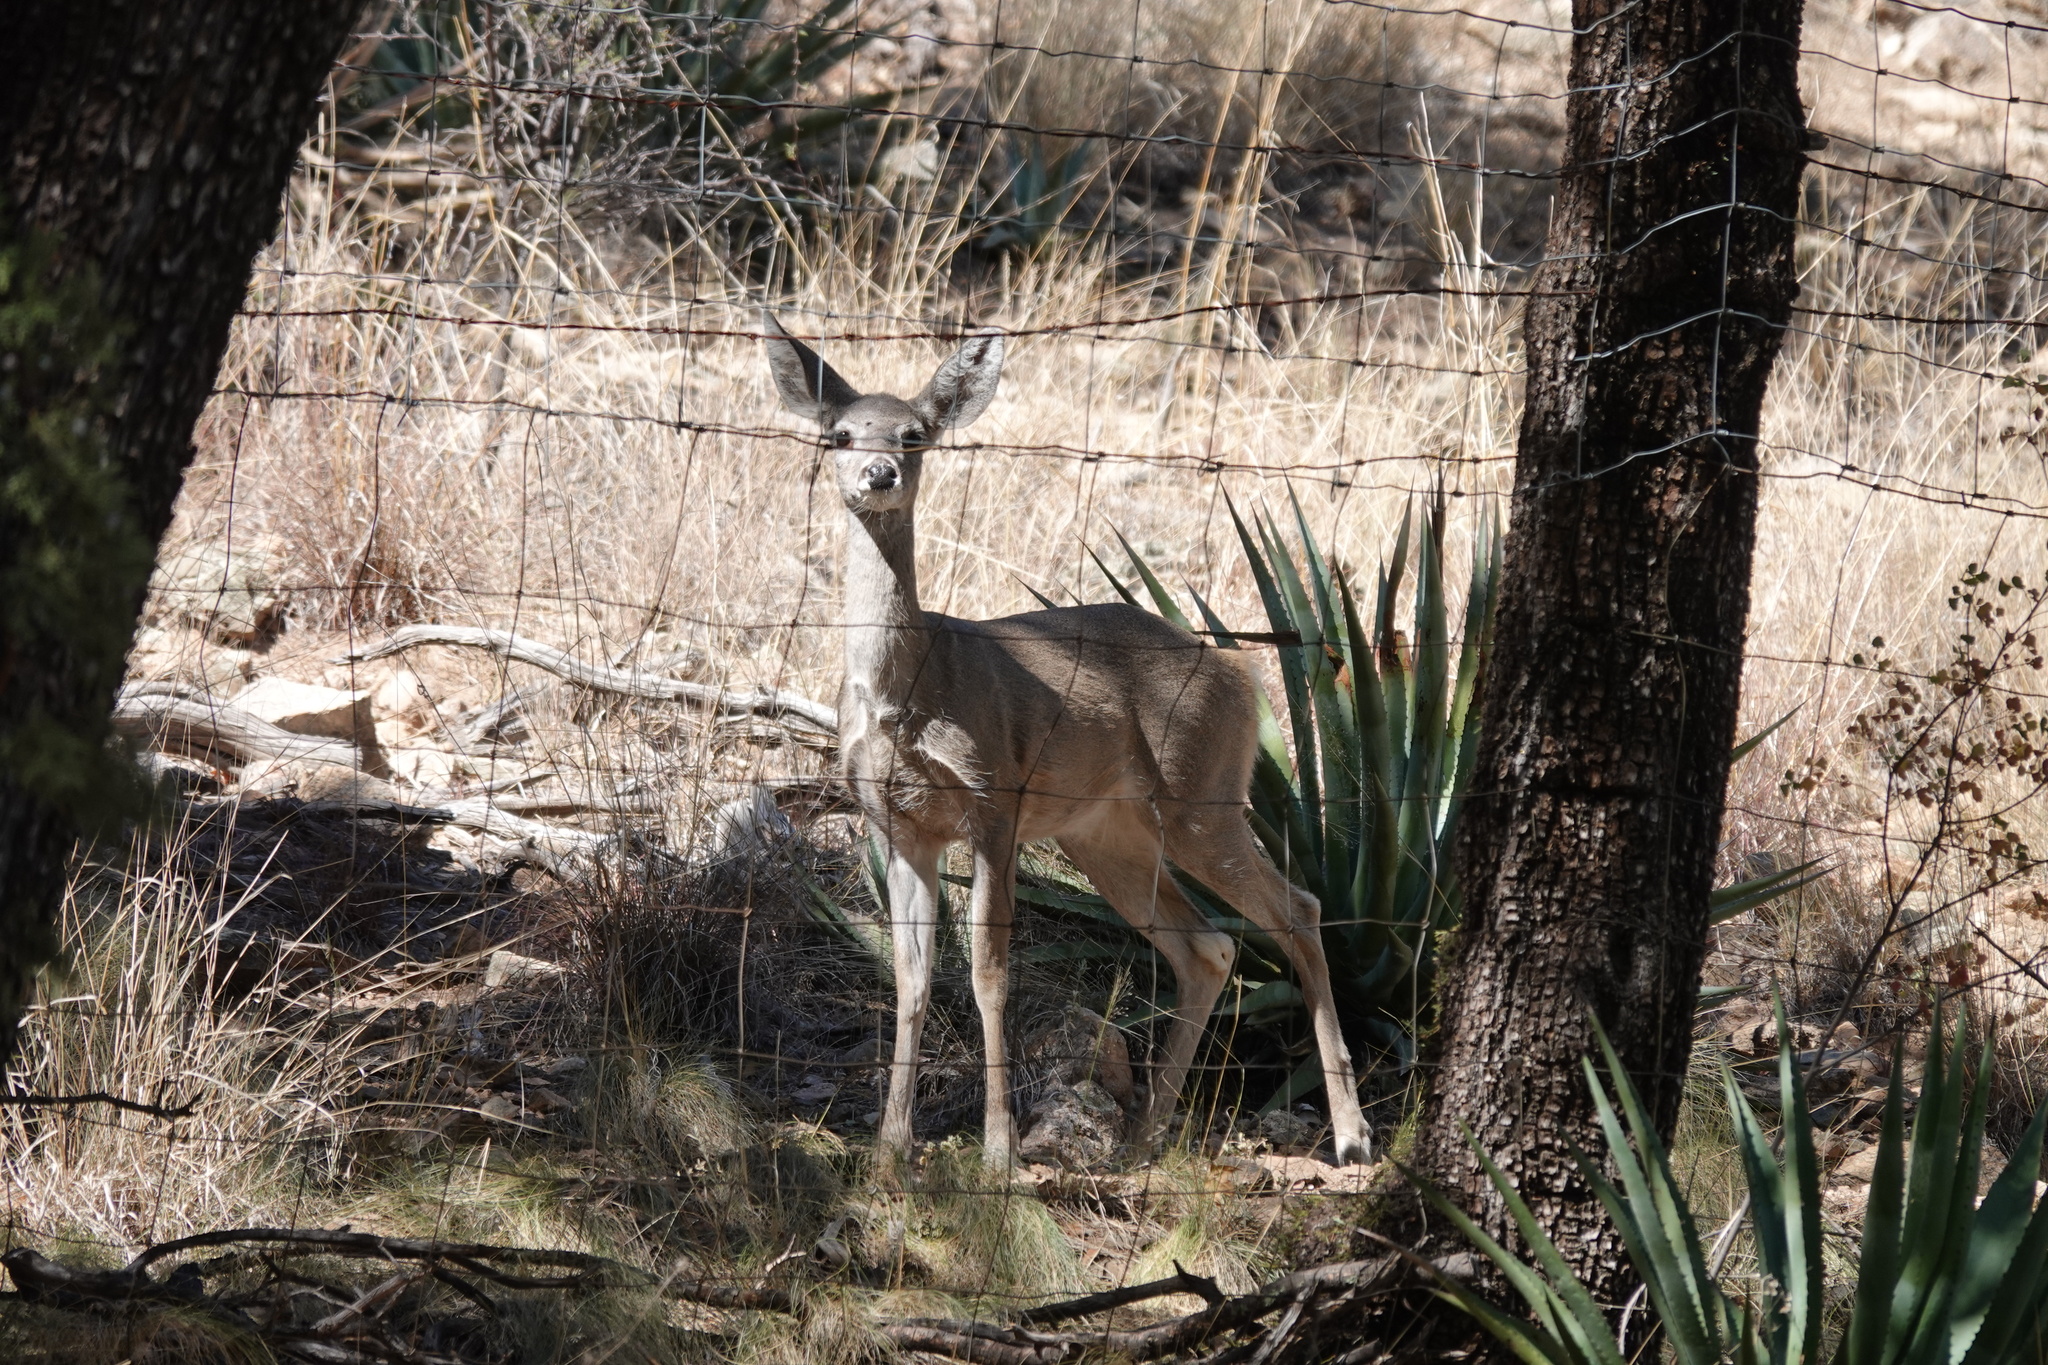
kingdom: Animalia
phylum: Chordata
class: Mammalia
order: Artiodactyla
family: Cervidae
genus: Odocoileus
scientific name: Odocoileus virginianus
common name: White-tailed deer
